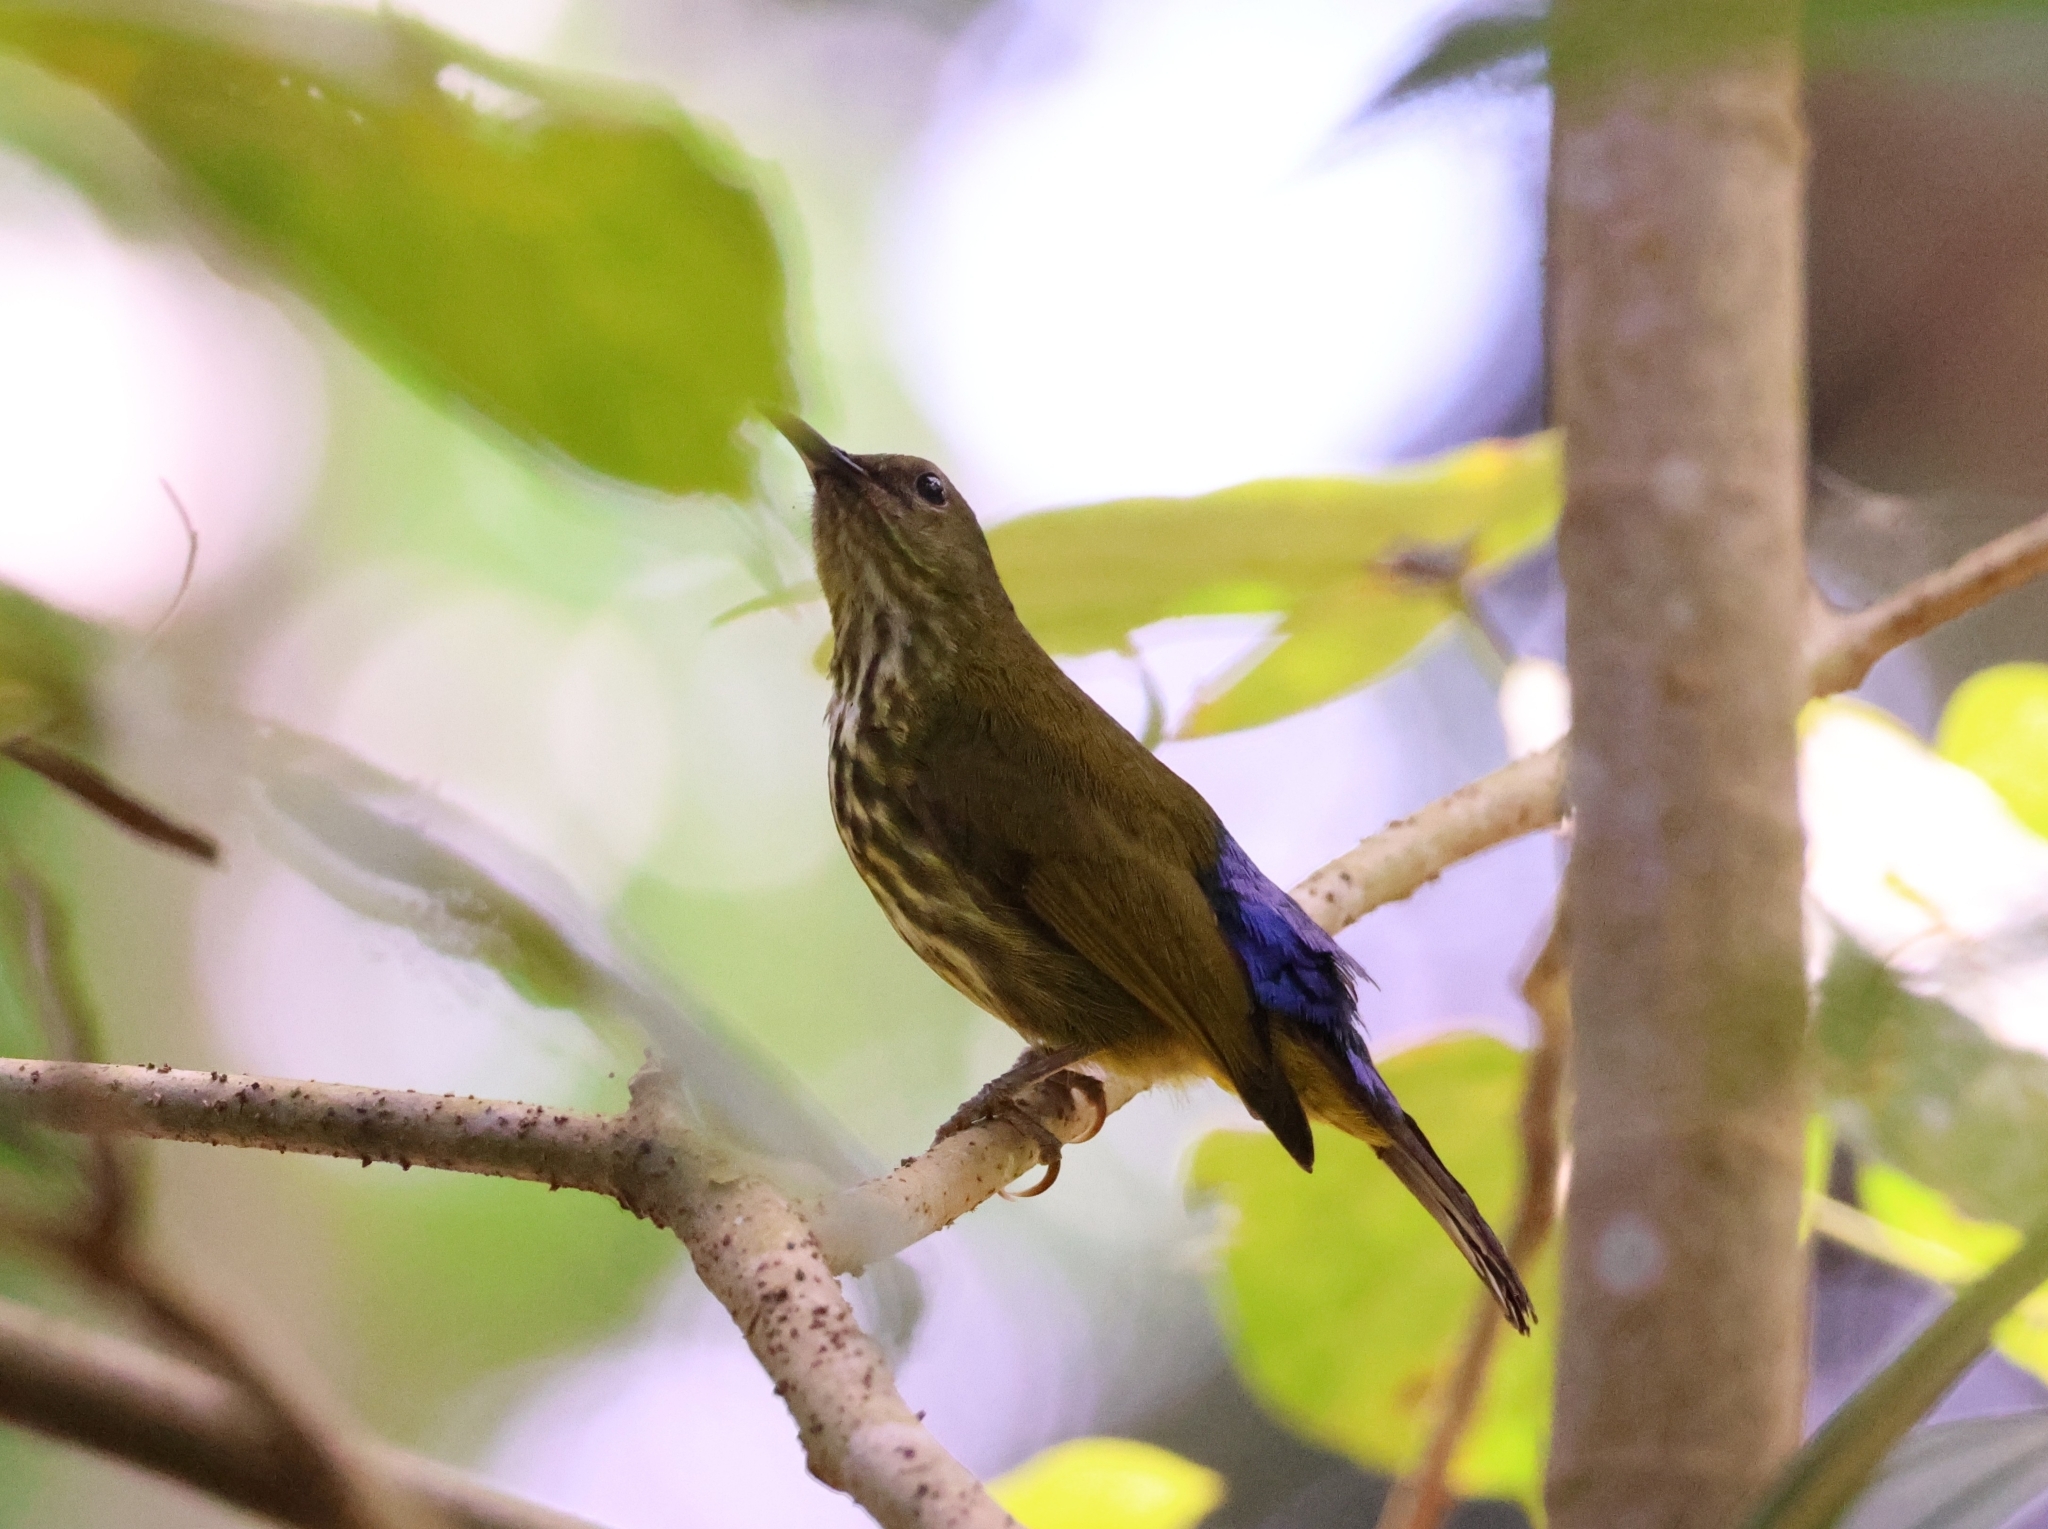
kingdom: Animalia
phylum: Chordata
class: Aves
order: Passeriformes
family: Nectariniidae
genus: Hypogramma
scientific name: Hypogramma hypogrammicum
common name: Purple-naped sunbird
